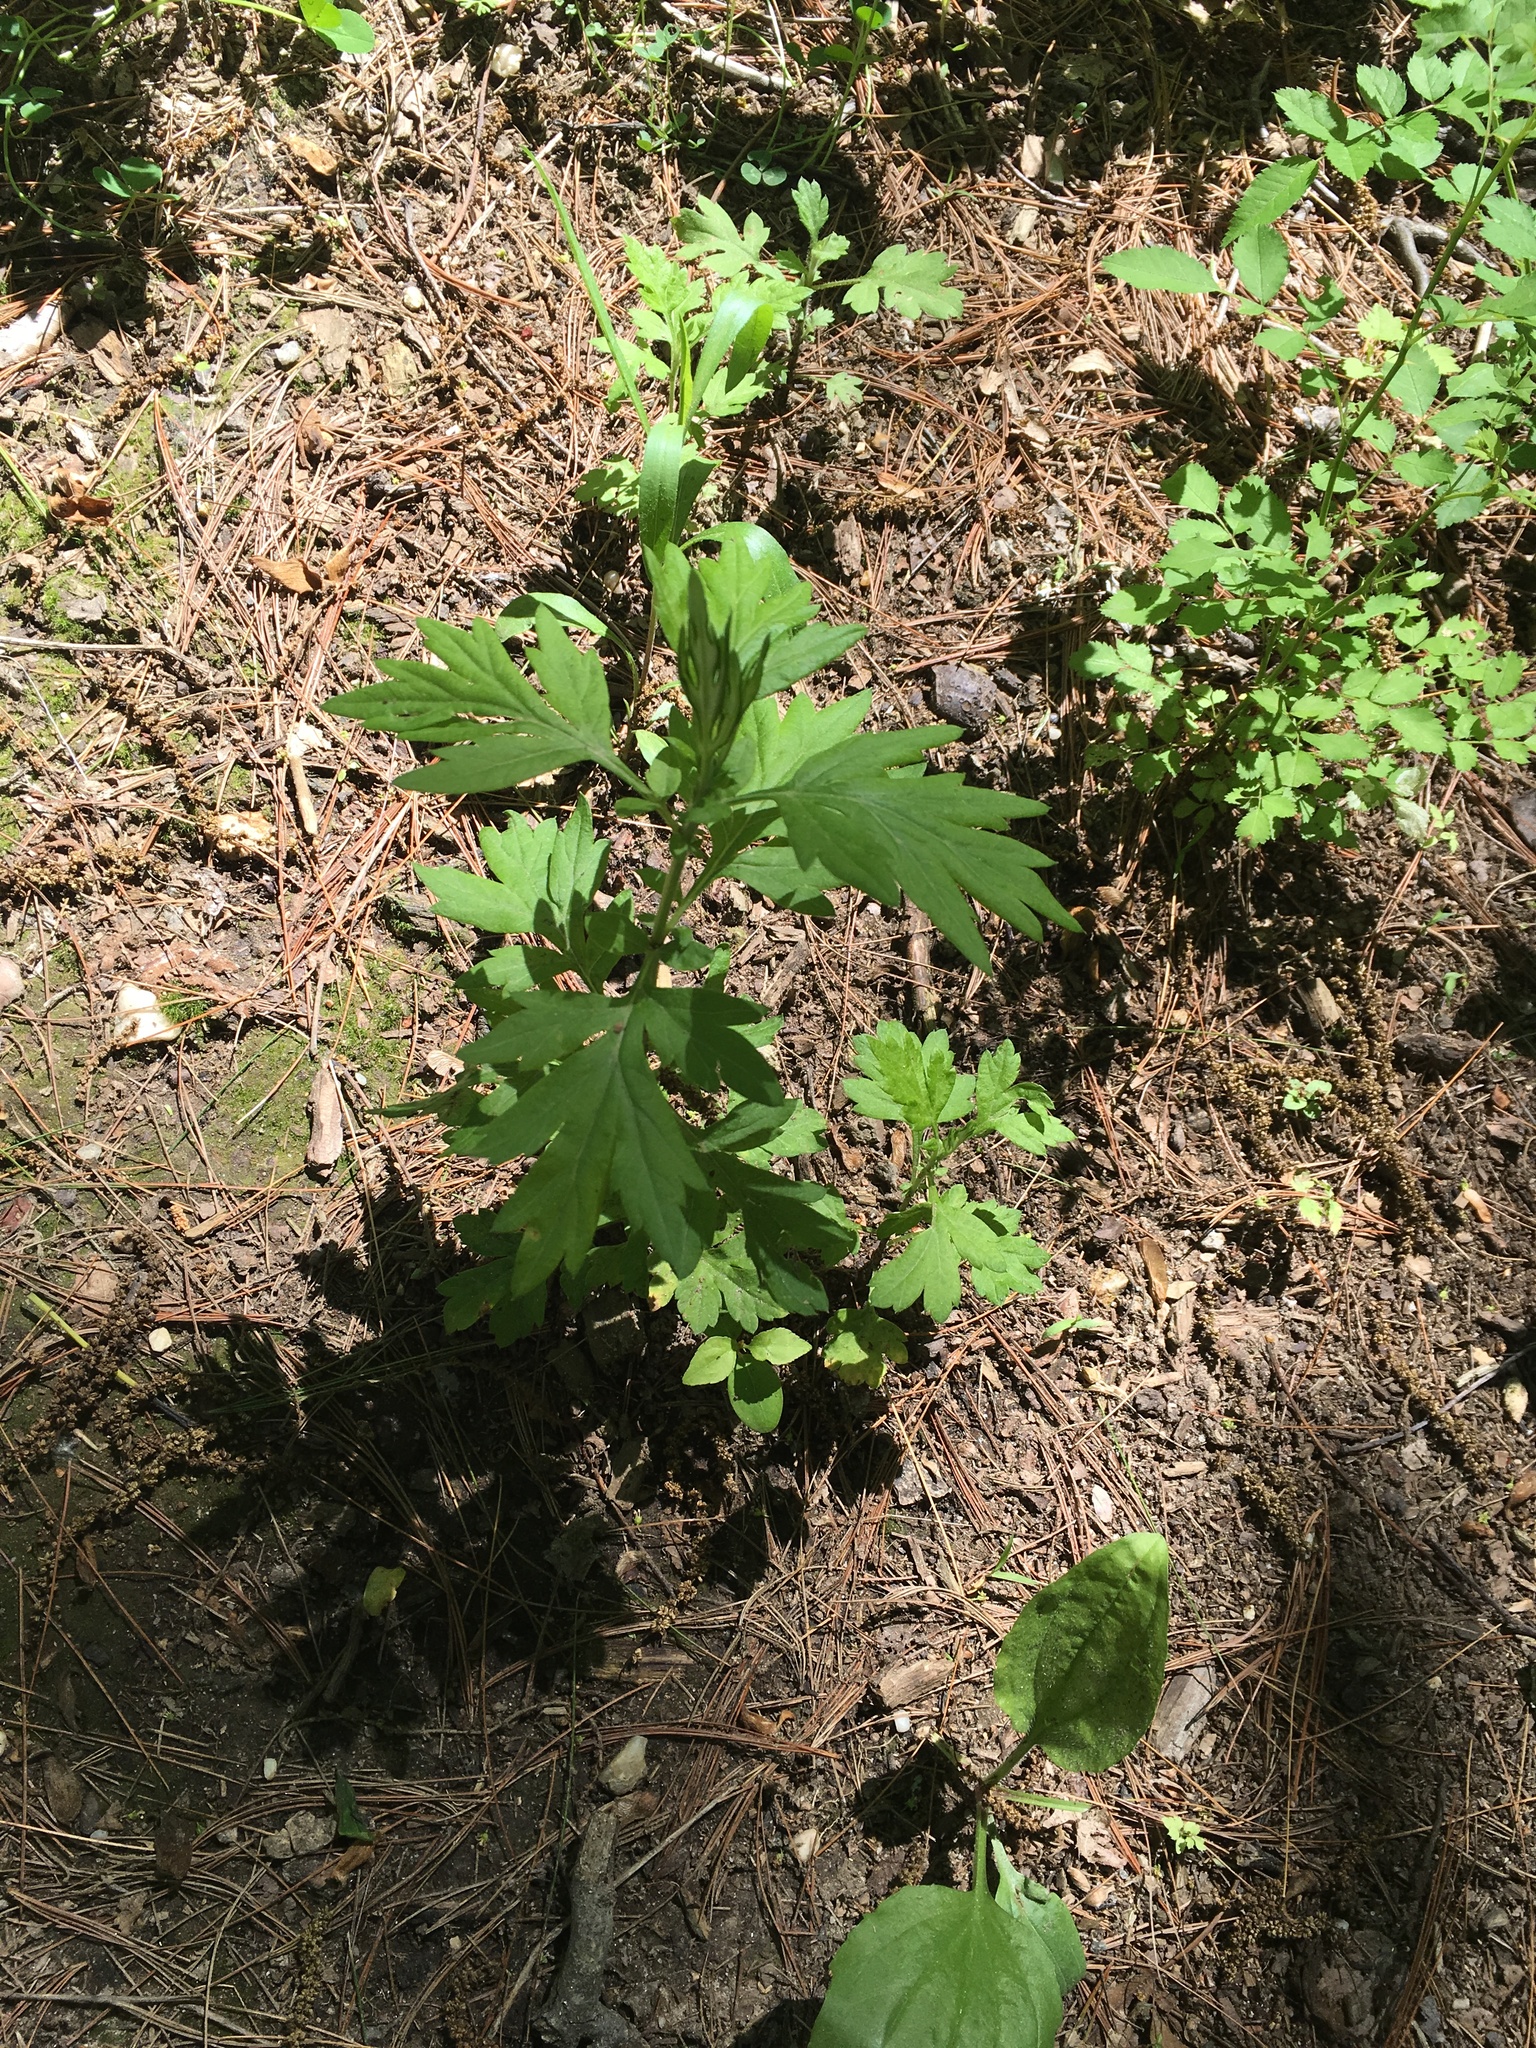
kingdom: Plantae
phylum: Tracheophyta
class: Magnoliopsida
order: Asterales
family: Asteraceae
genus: Artemisia
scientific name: Artemisia vulgaris
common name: Mugwort
